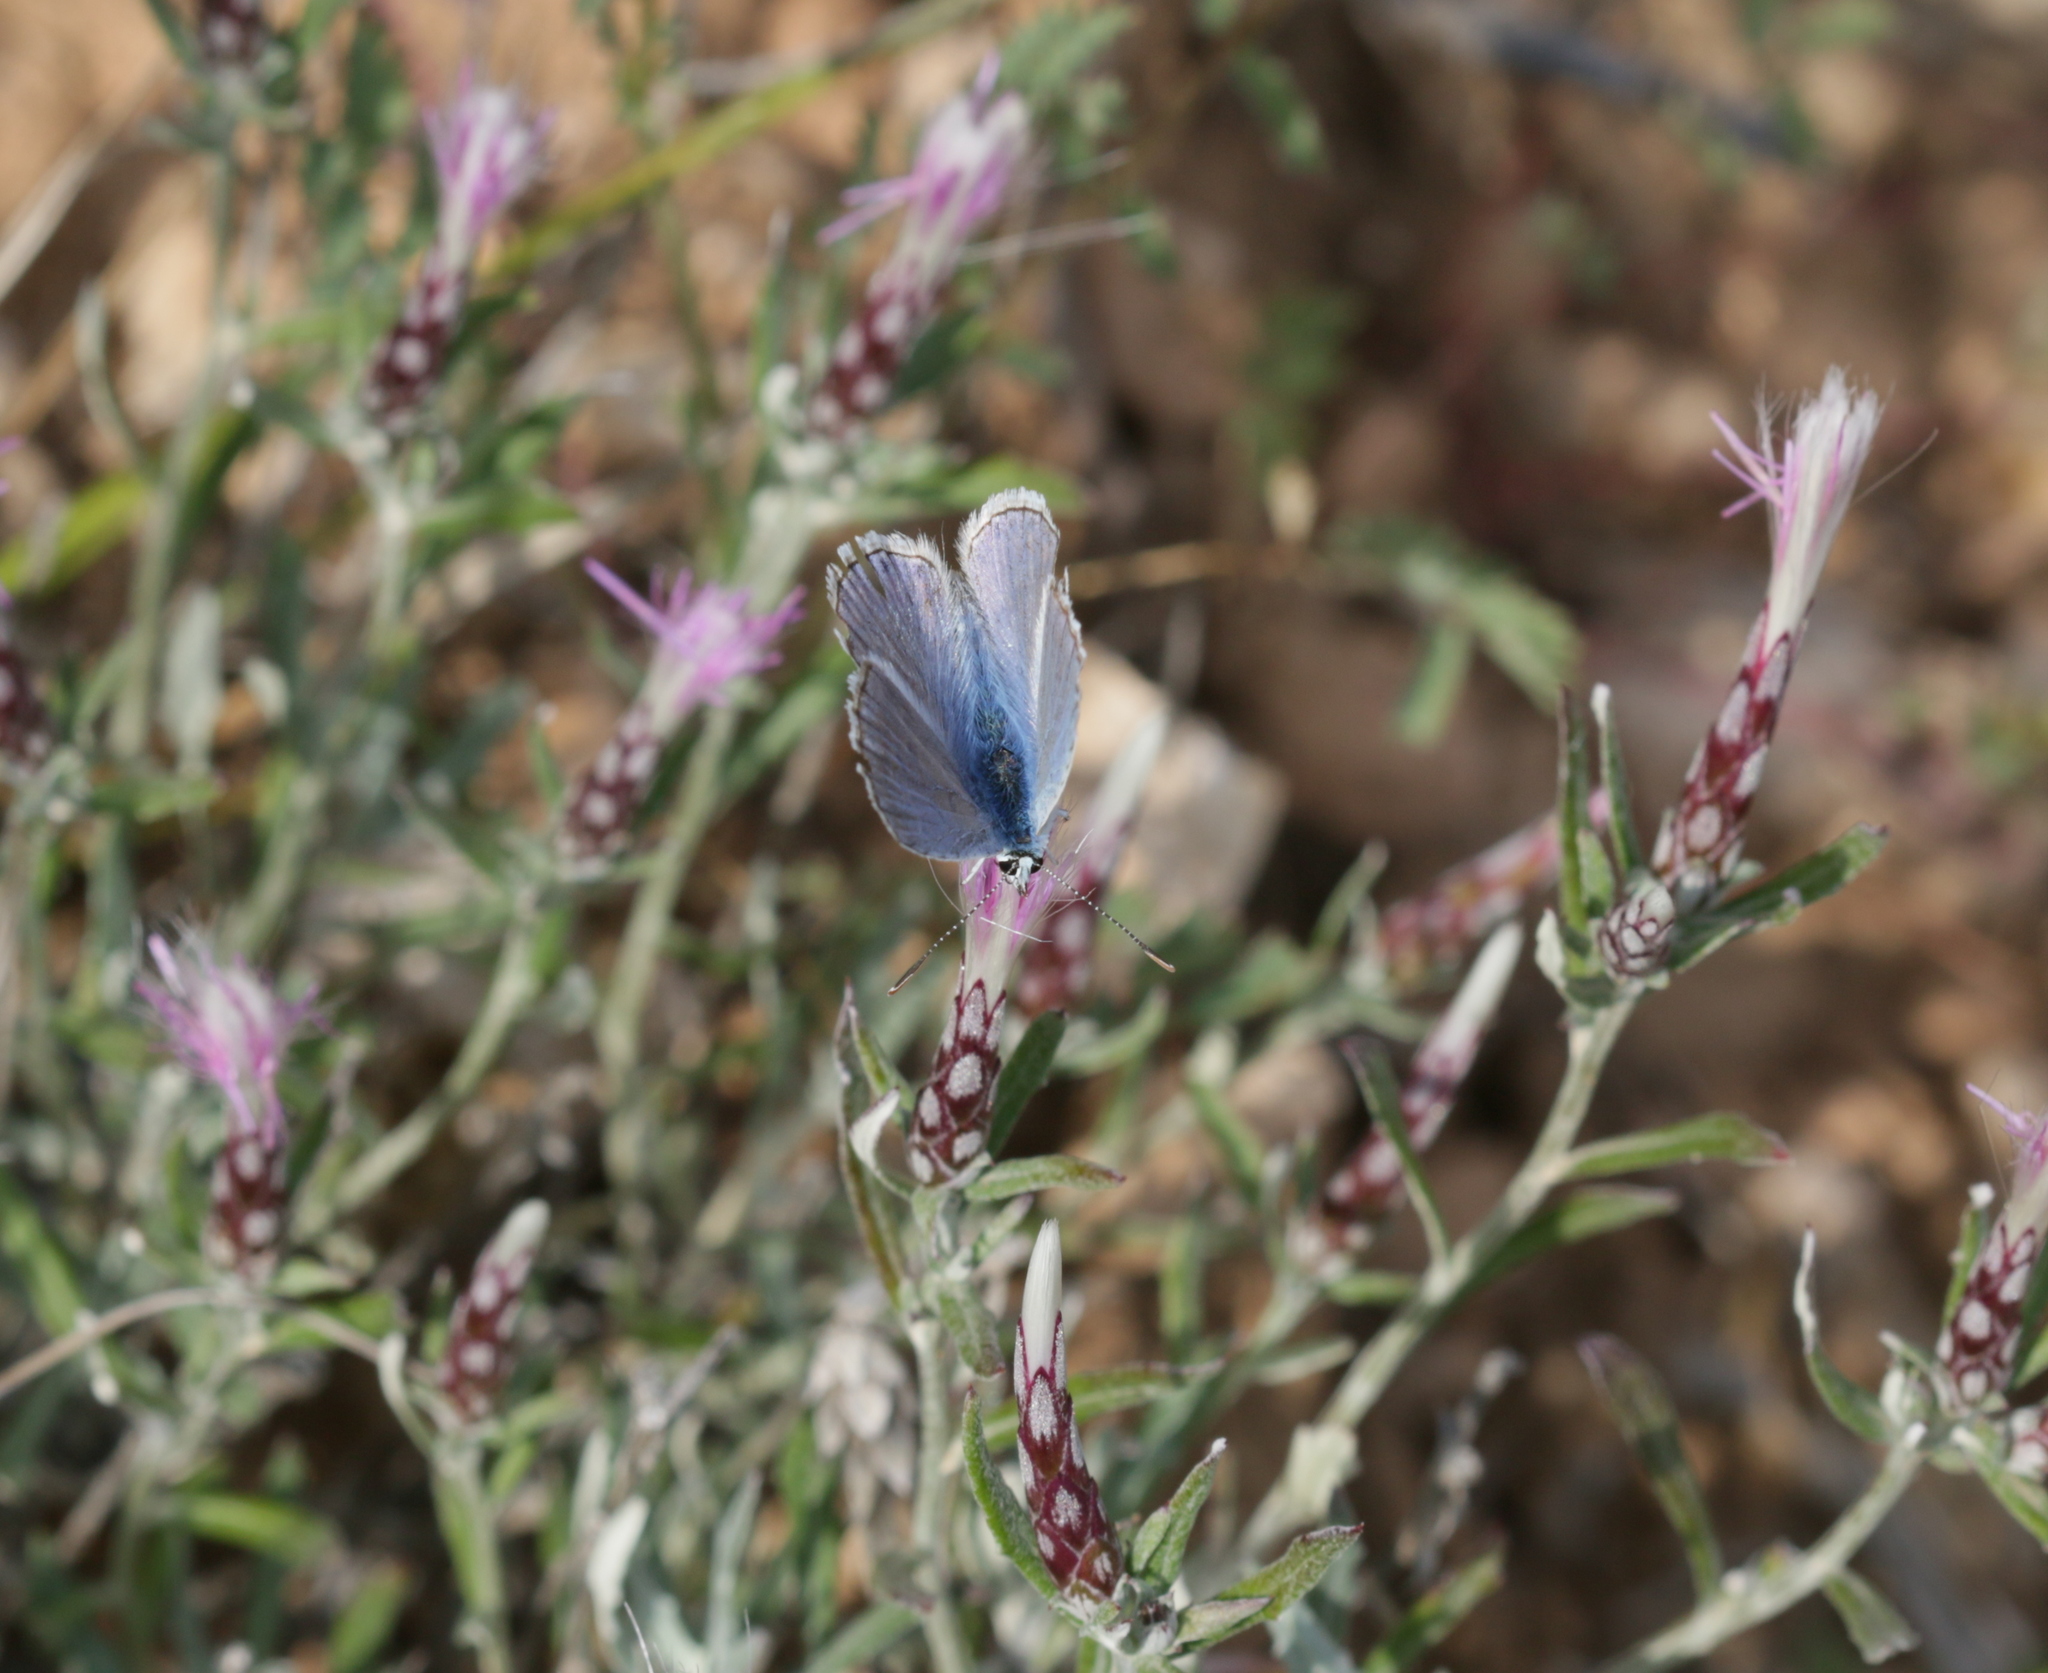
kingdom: Plantae
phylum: Tracheophyta
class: Magnoliopsida
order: Asterales
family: Asteraceae
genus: Staehelina
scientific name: Staehelina dubia
